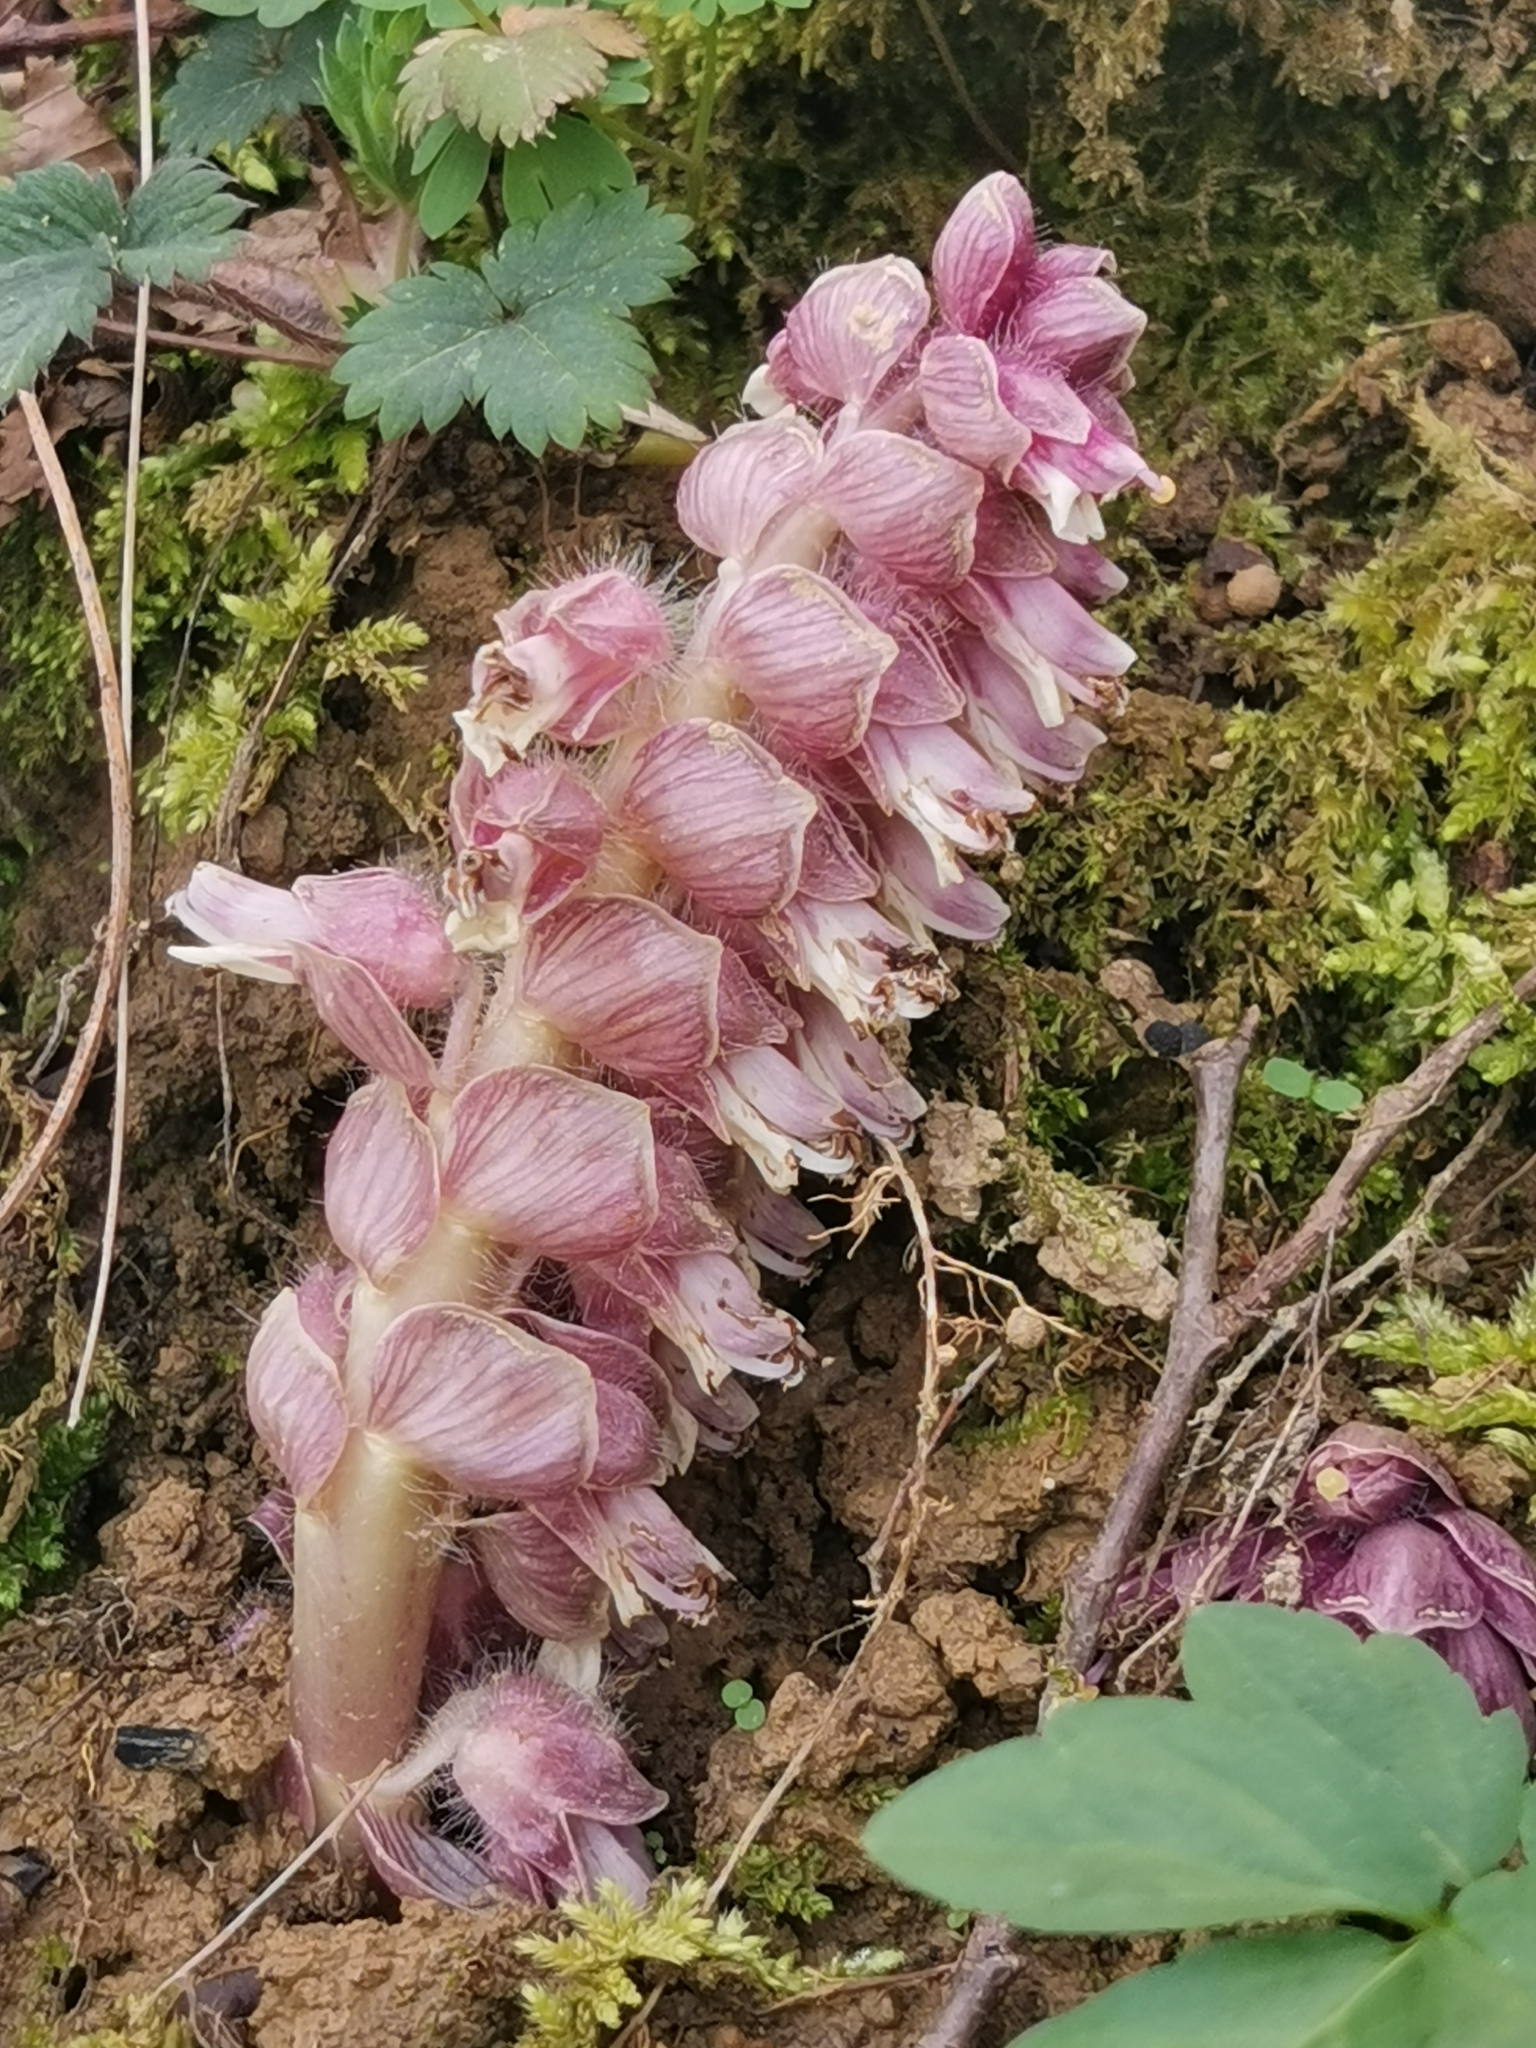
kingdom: Plantae
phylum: Tracheophyta
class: Magnoliopsida
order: Lamiales
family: Orobanchaceae
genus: Lathraea
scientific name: Lathraea squamaria
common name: Toothwort
